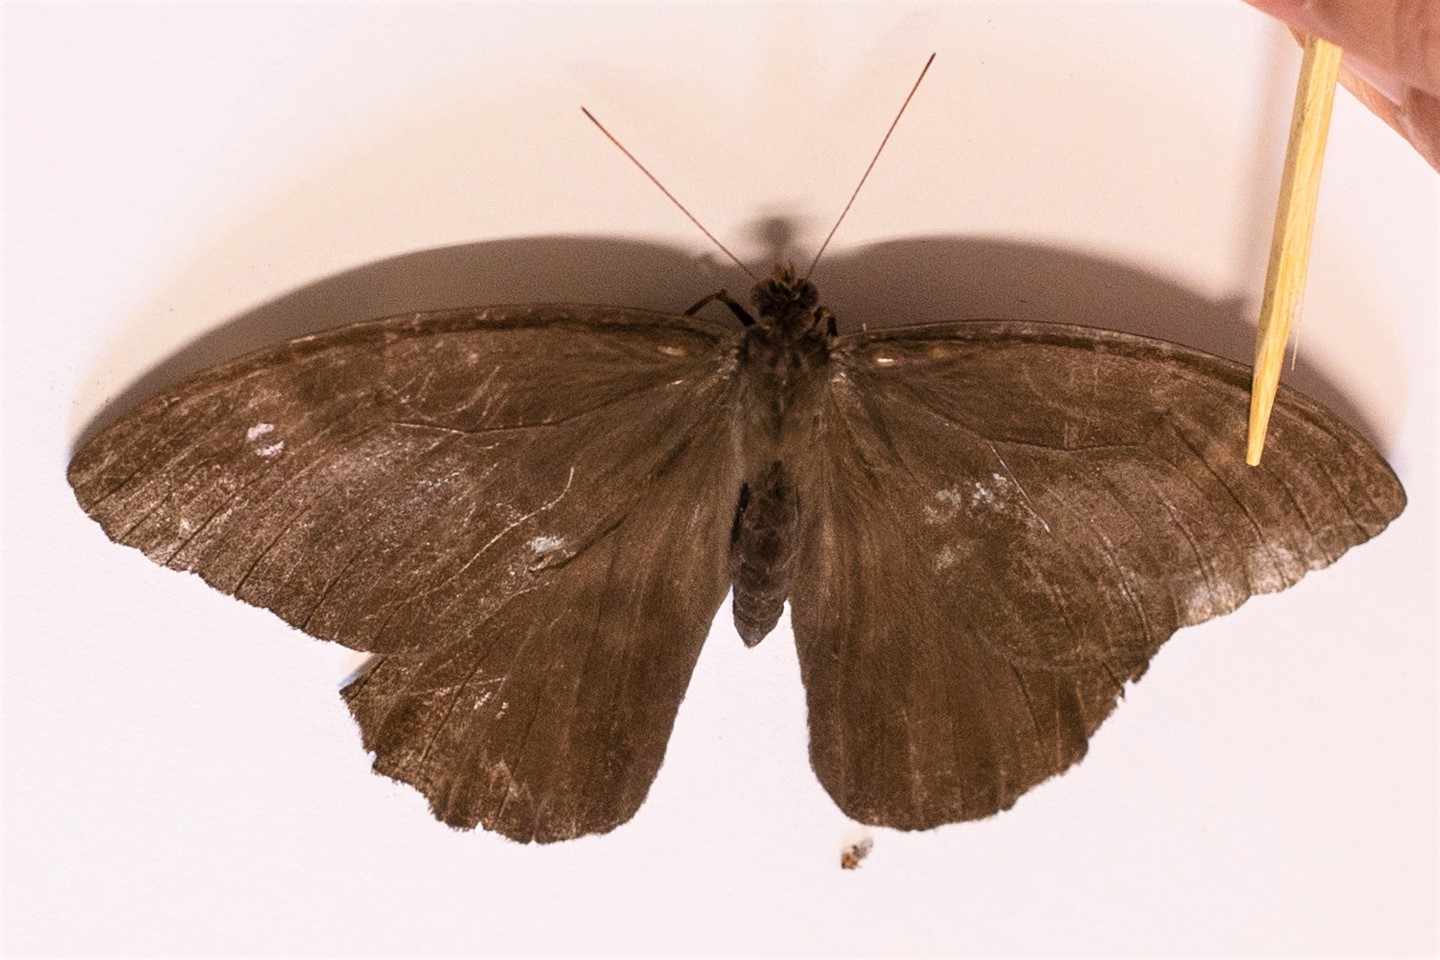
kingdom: Animalia
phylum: Arthropoda
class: Insecta
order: Lepidoptera
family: Nymphalidae
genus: Taygetis
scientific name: Taygetis thamyra
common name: Thamyra satyr
